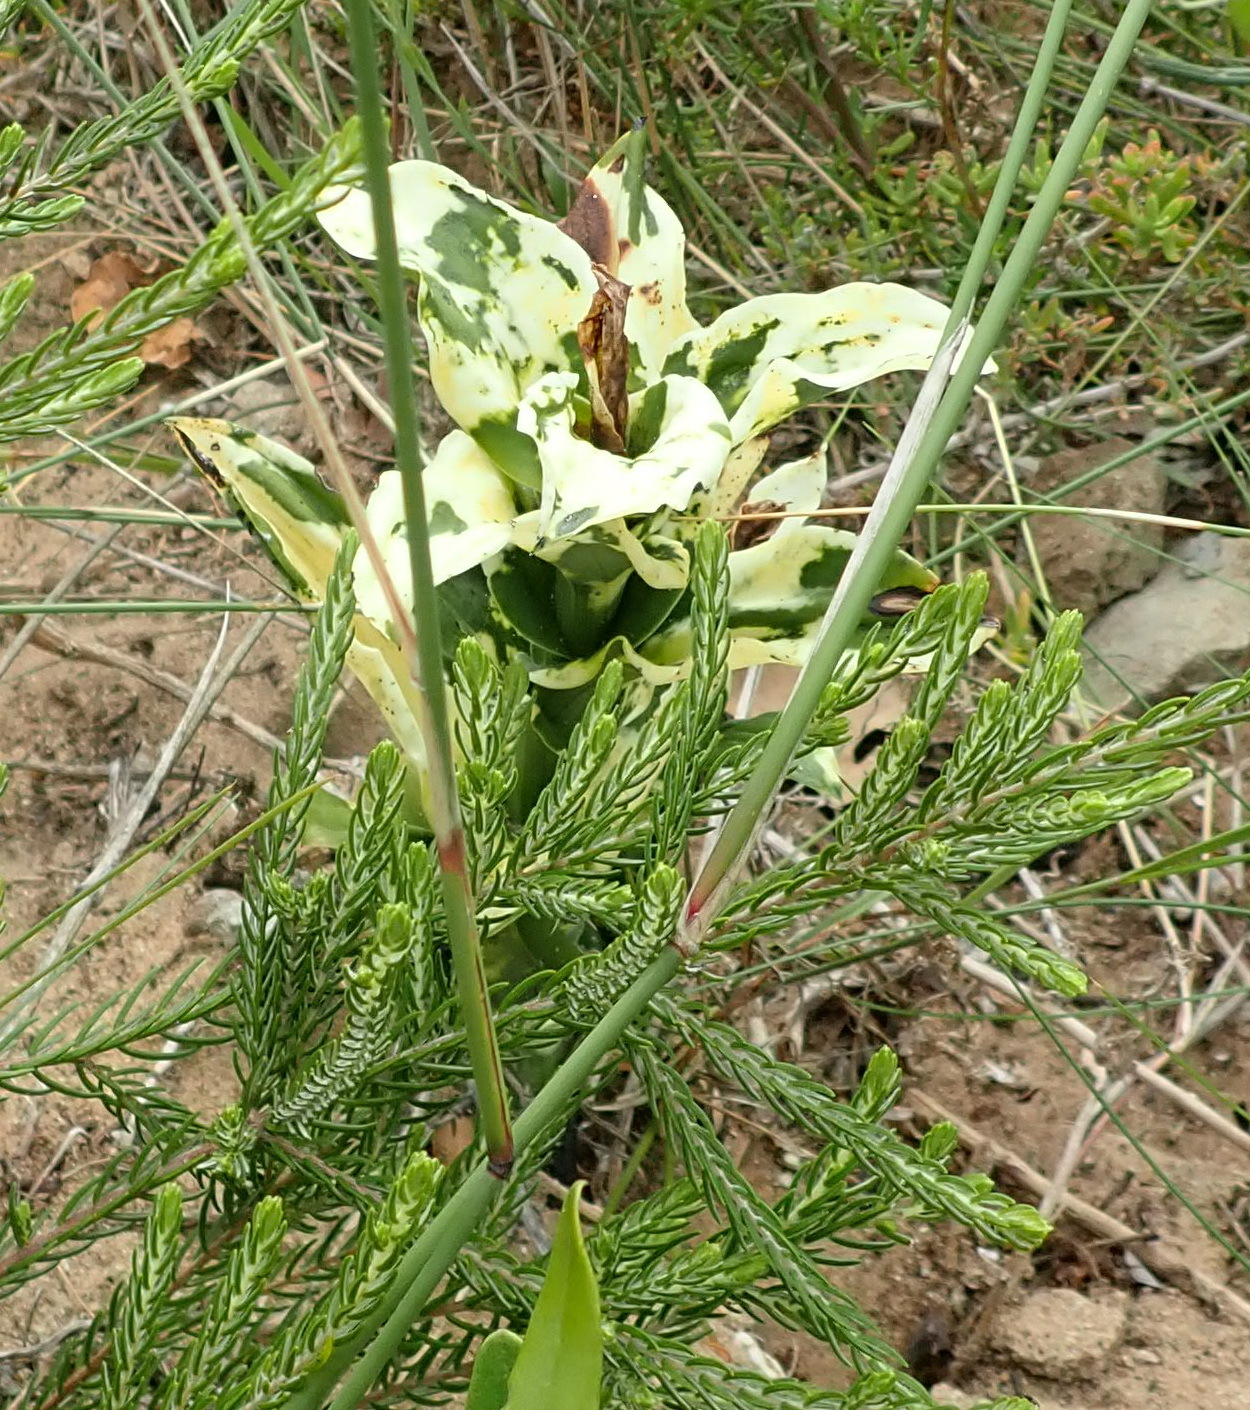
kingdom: Plantae
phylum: Tracheophyta
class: Liliopsida
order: Asparagales
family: Orchidaceae
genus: Bonatea
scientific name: Bonatea speciosa
